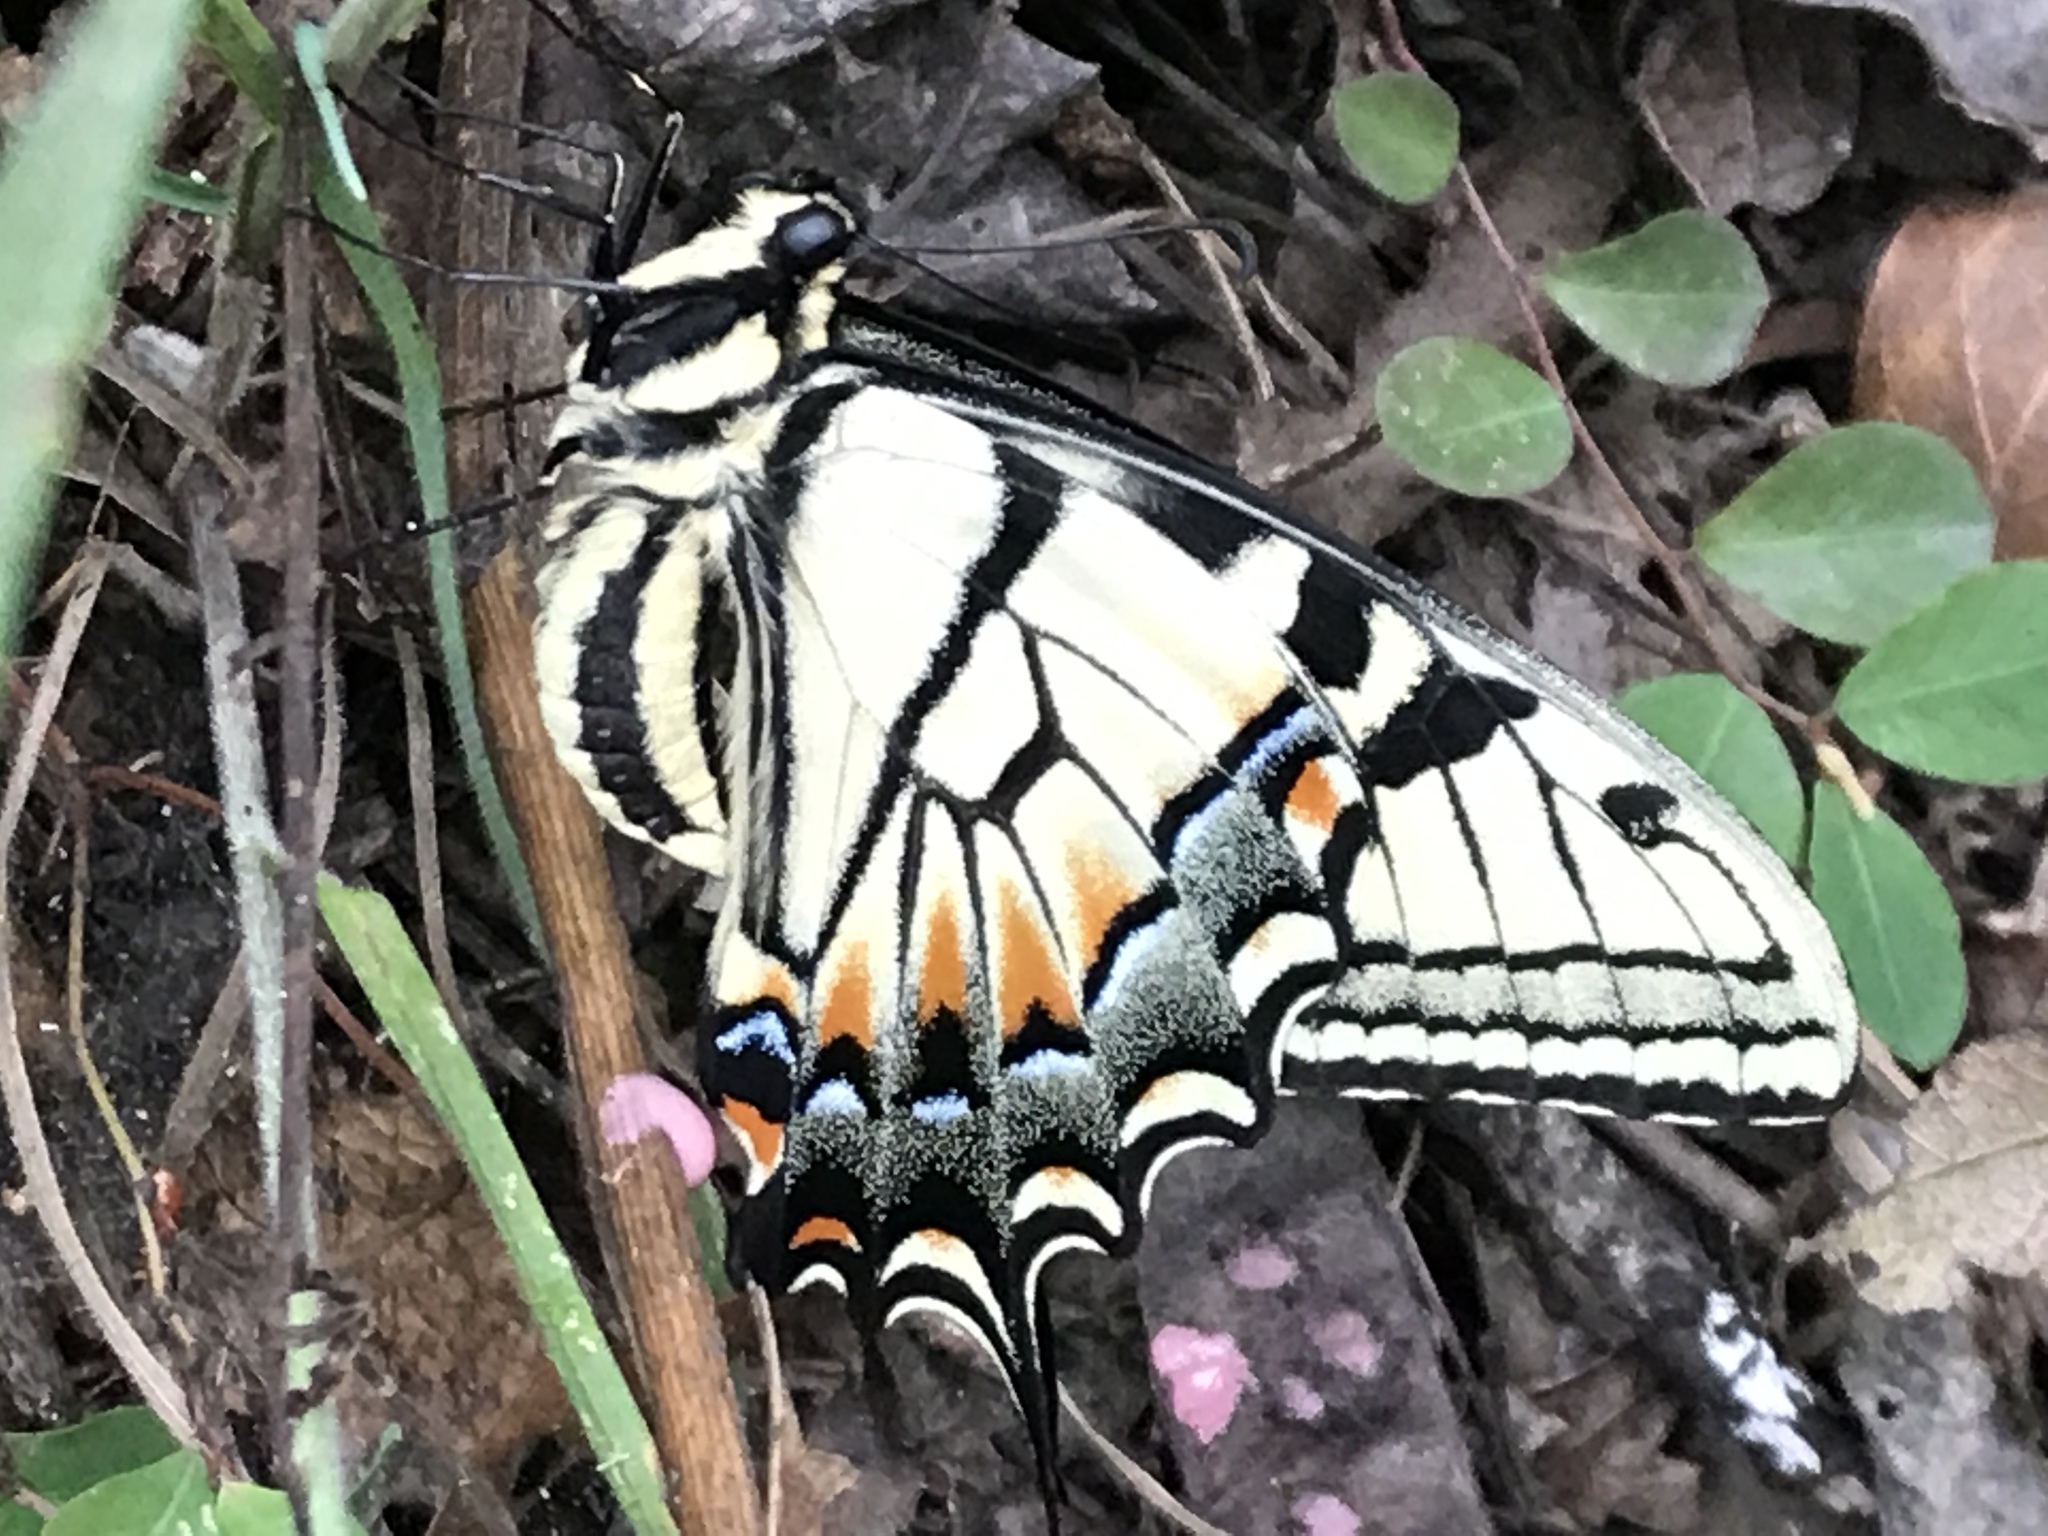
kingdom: Animalia
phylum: Arthropoda
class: Insecta
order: Lepidoptera
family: Papilionidae
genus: Papilio
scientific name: Papilio glaucus
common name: Tiger swallowtail
